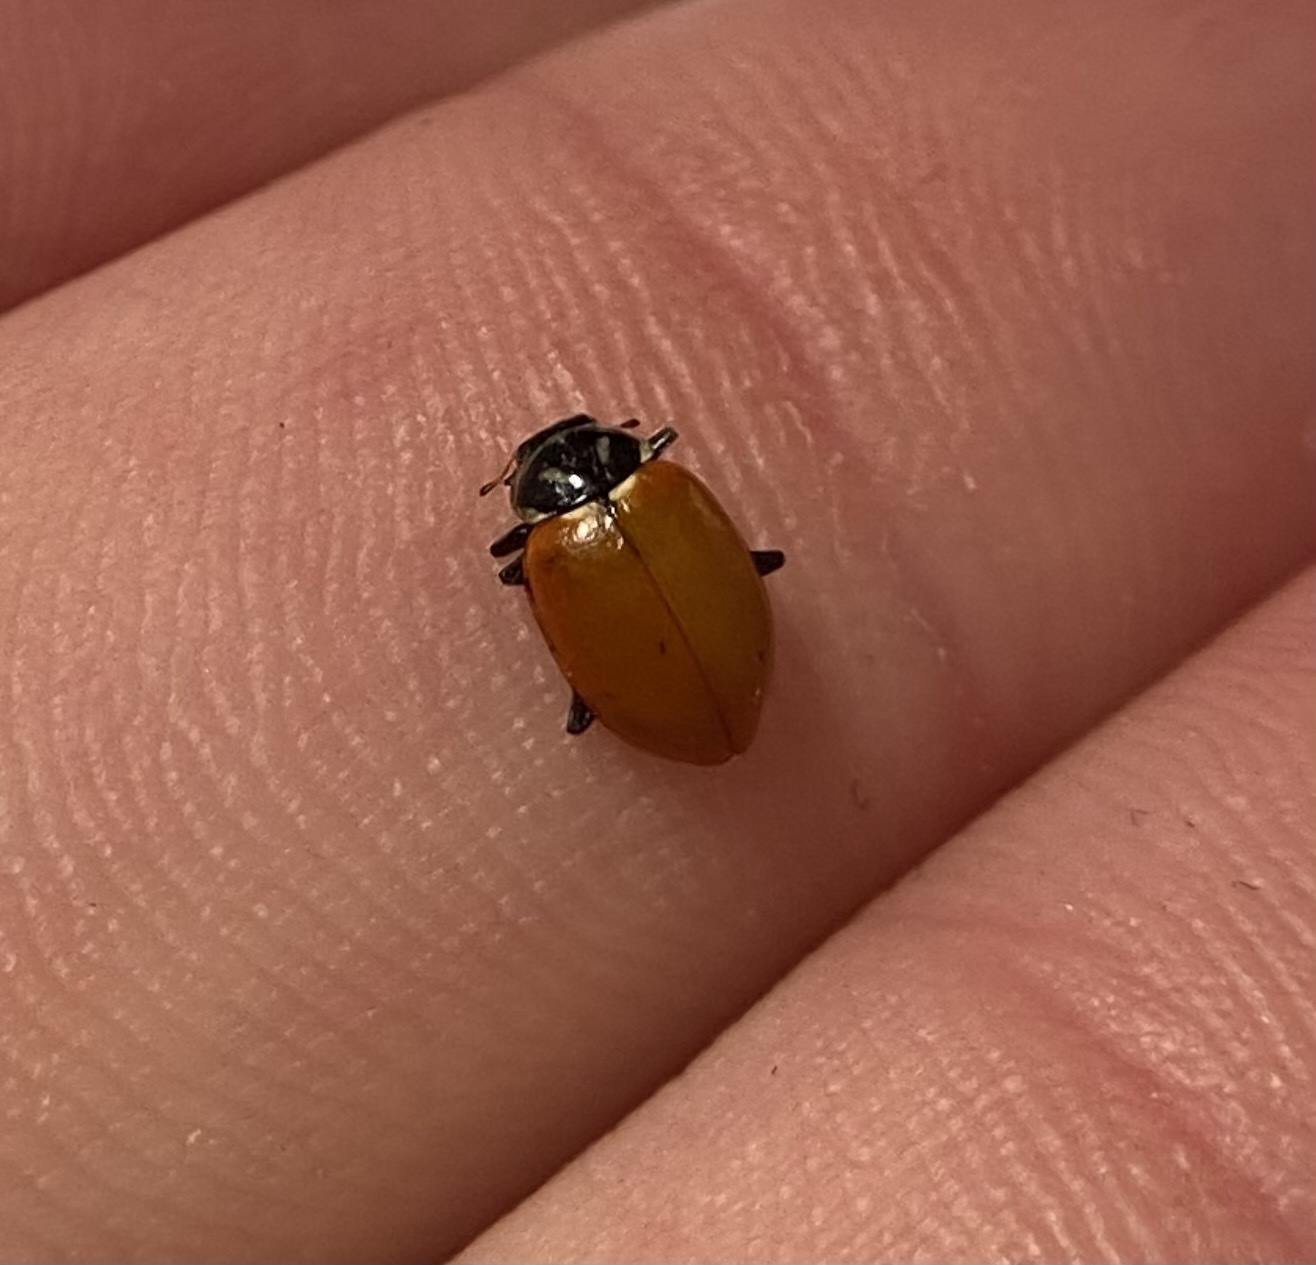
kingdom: Animalia
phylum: Arthropoda
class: Insecta
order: Coleoptera
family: Coccinellidae
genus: Hippodamia
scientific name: Hippodamia convergens
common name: Convergent lady beetle
